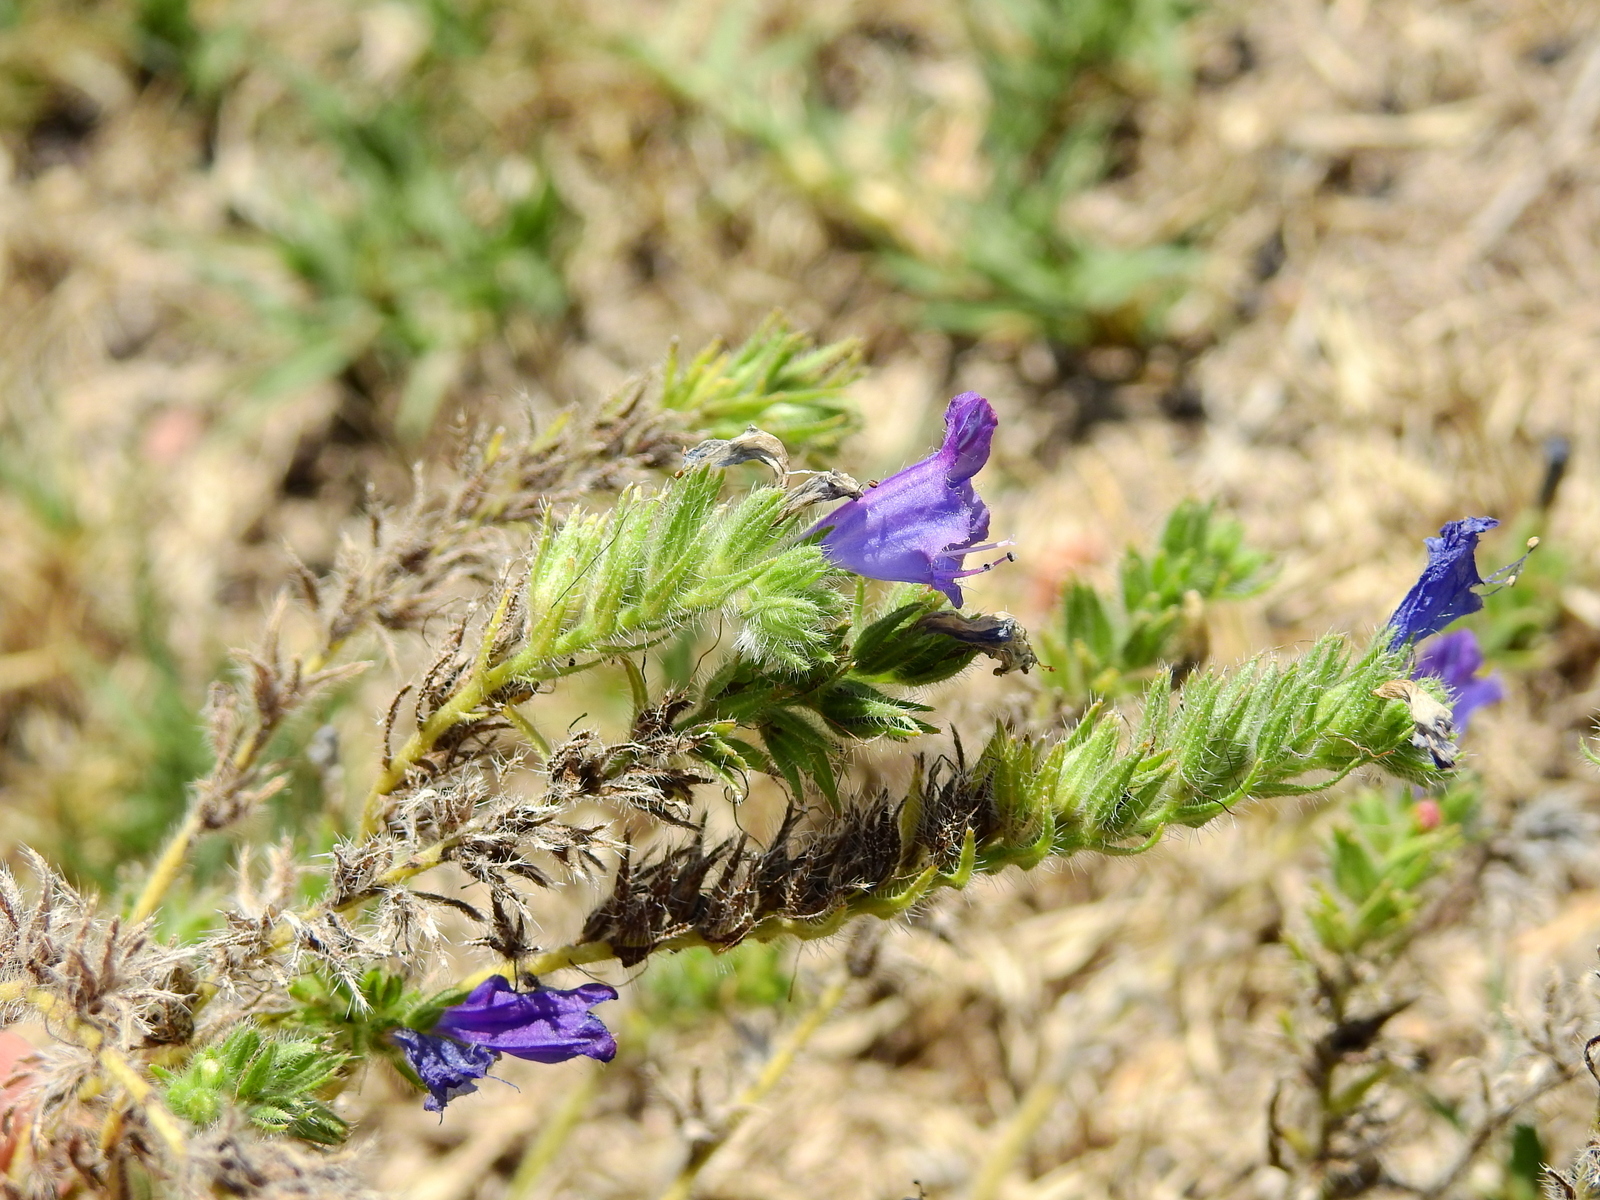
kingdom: Plantae
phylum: Tracheophyta
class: Magnoliopsida
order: Boraginales
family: Boraginaceae
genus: Echium
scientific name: Echium plantagineum
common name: Purple viper's-bugloss
